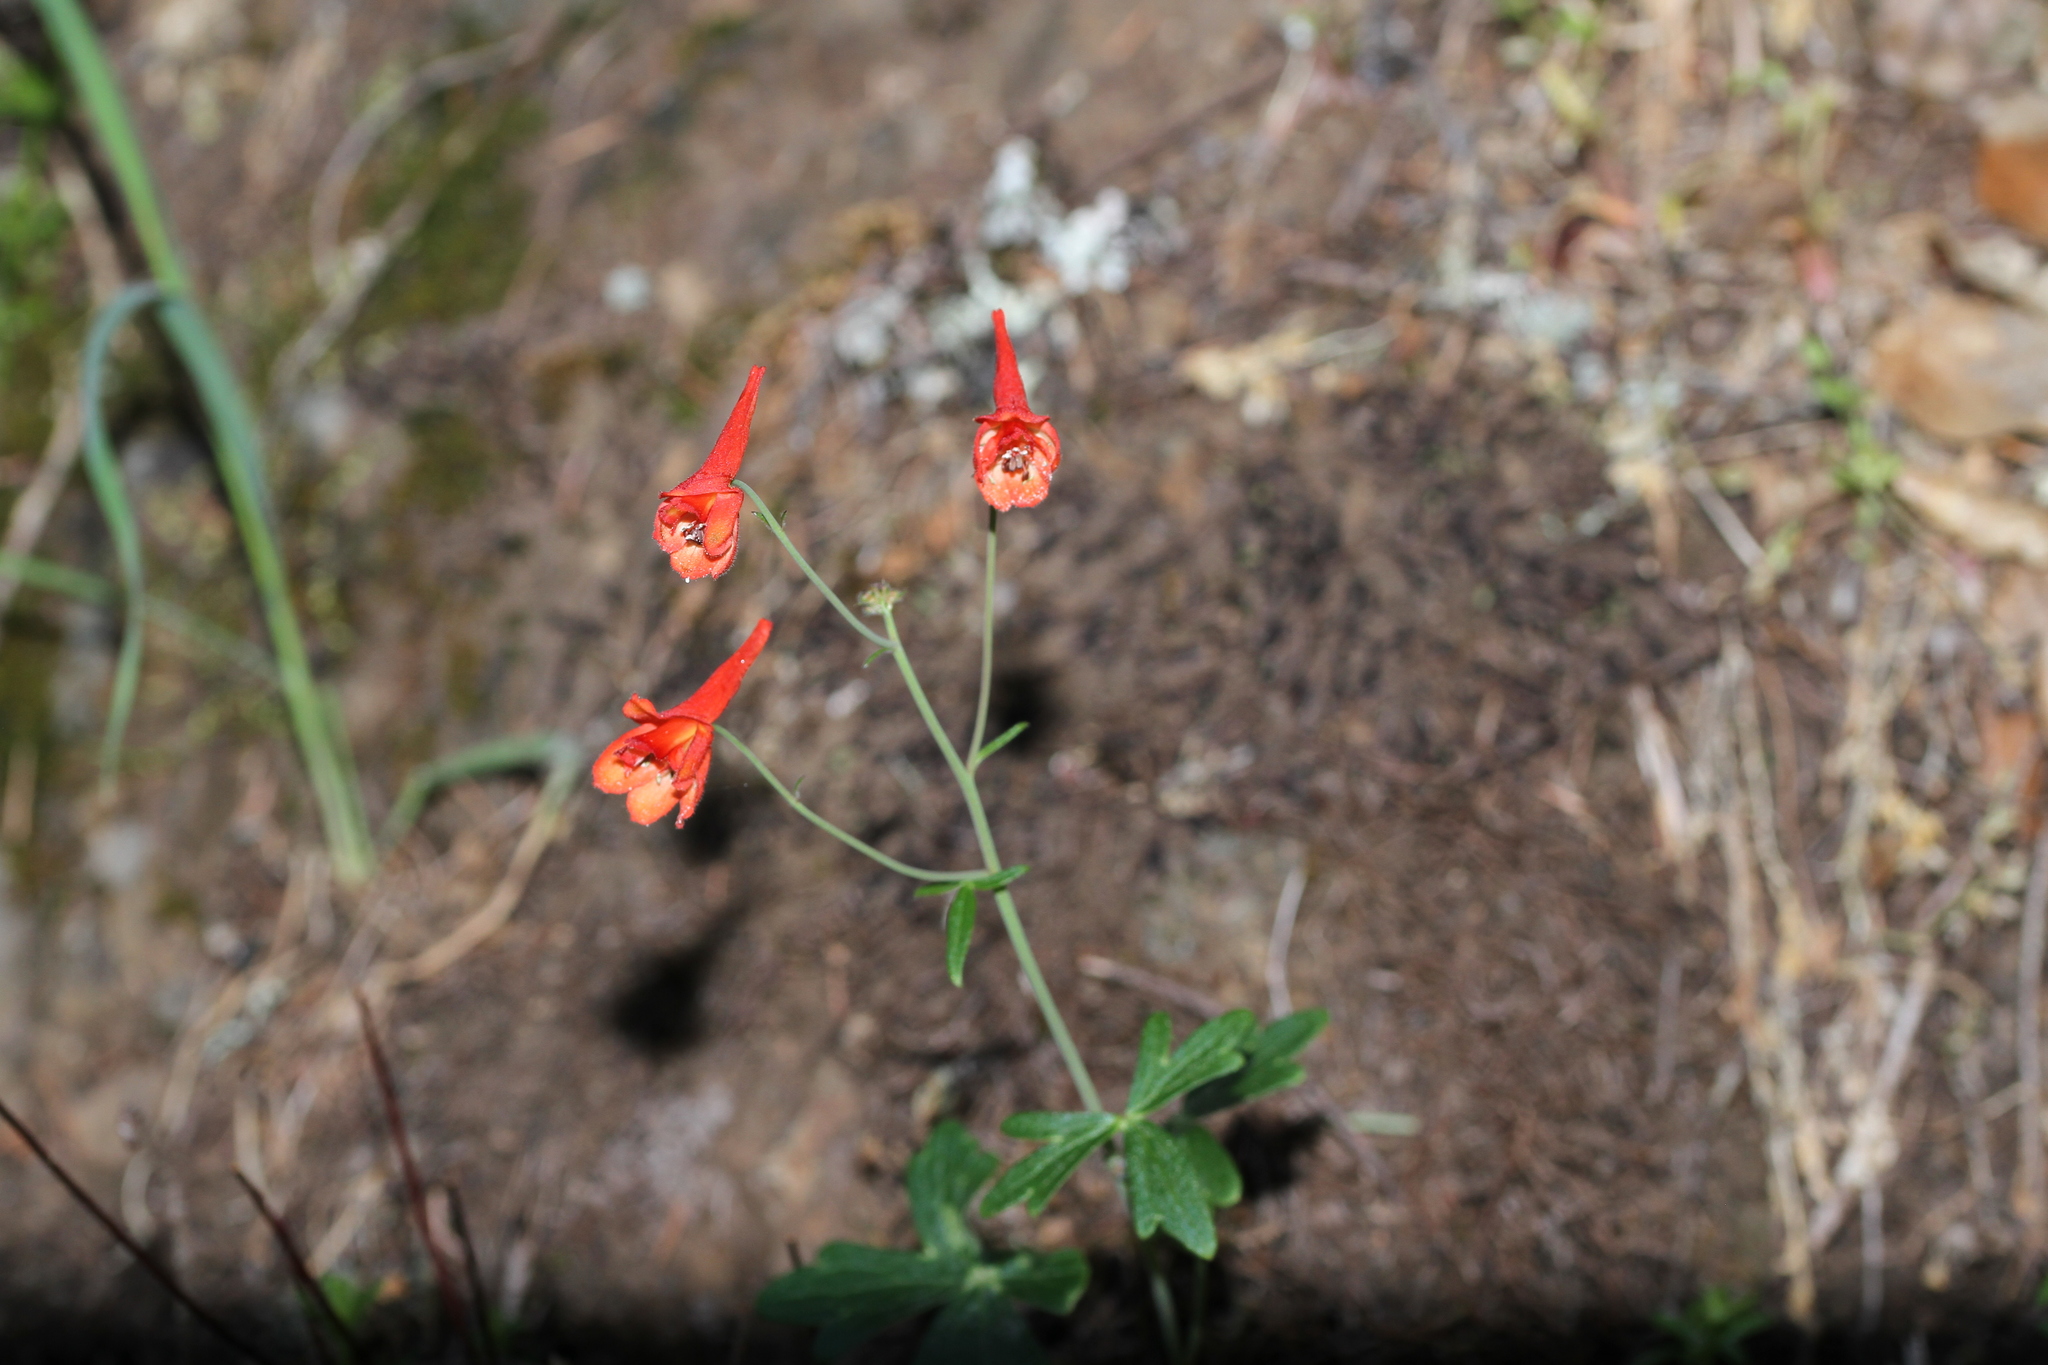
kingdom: Plantae
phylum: Tracheophyta
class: Magnoliopsida
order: Ranunculales
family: Ranunculaceae
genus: Delphinium
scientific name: Delphinium nudicaule
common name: Red larkspur
